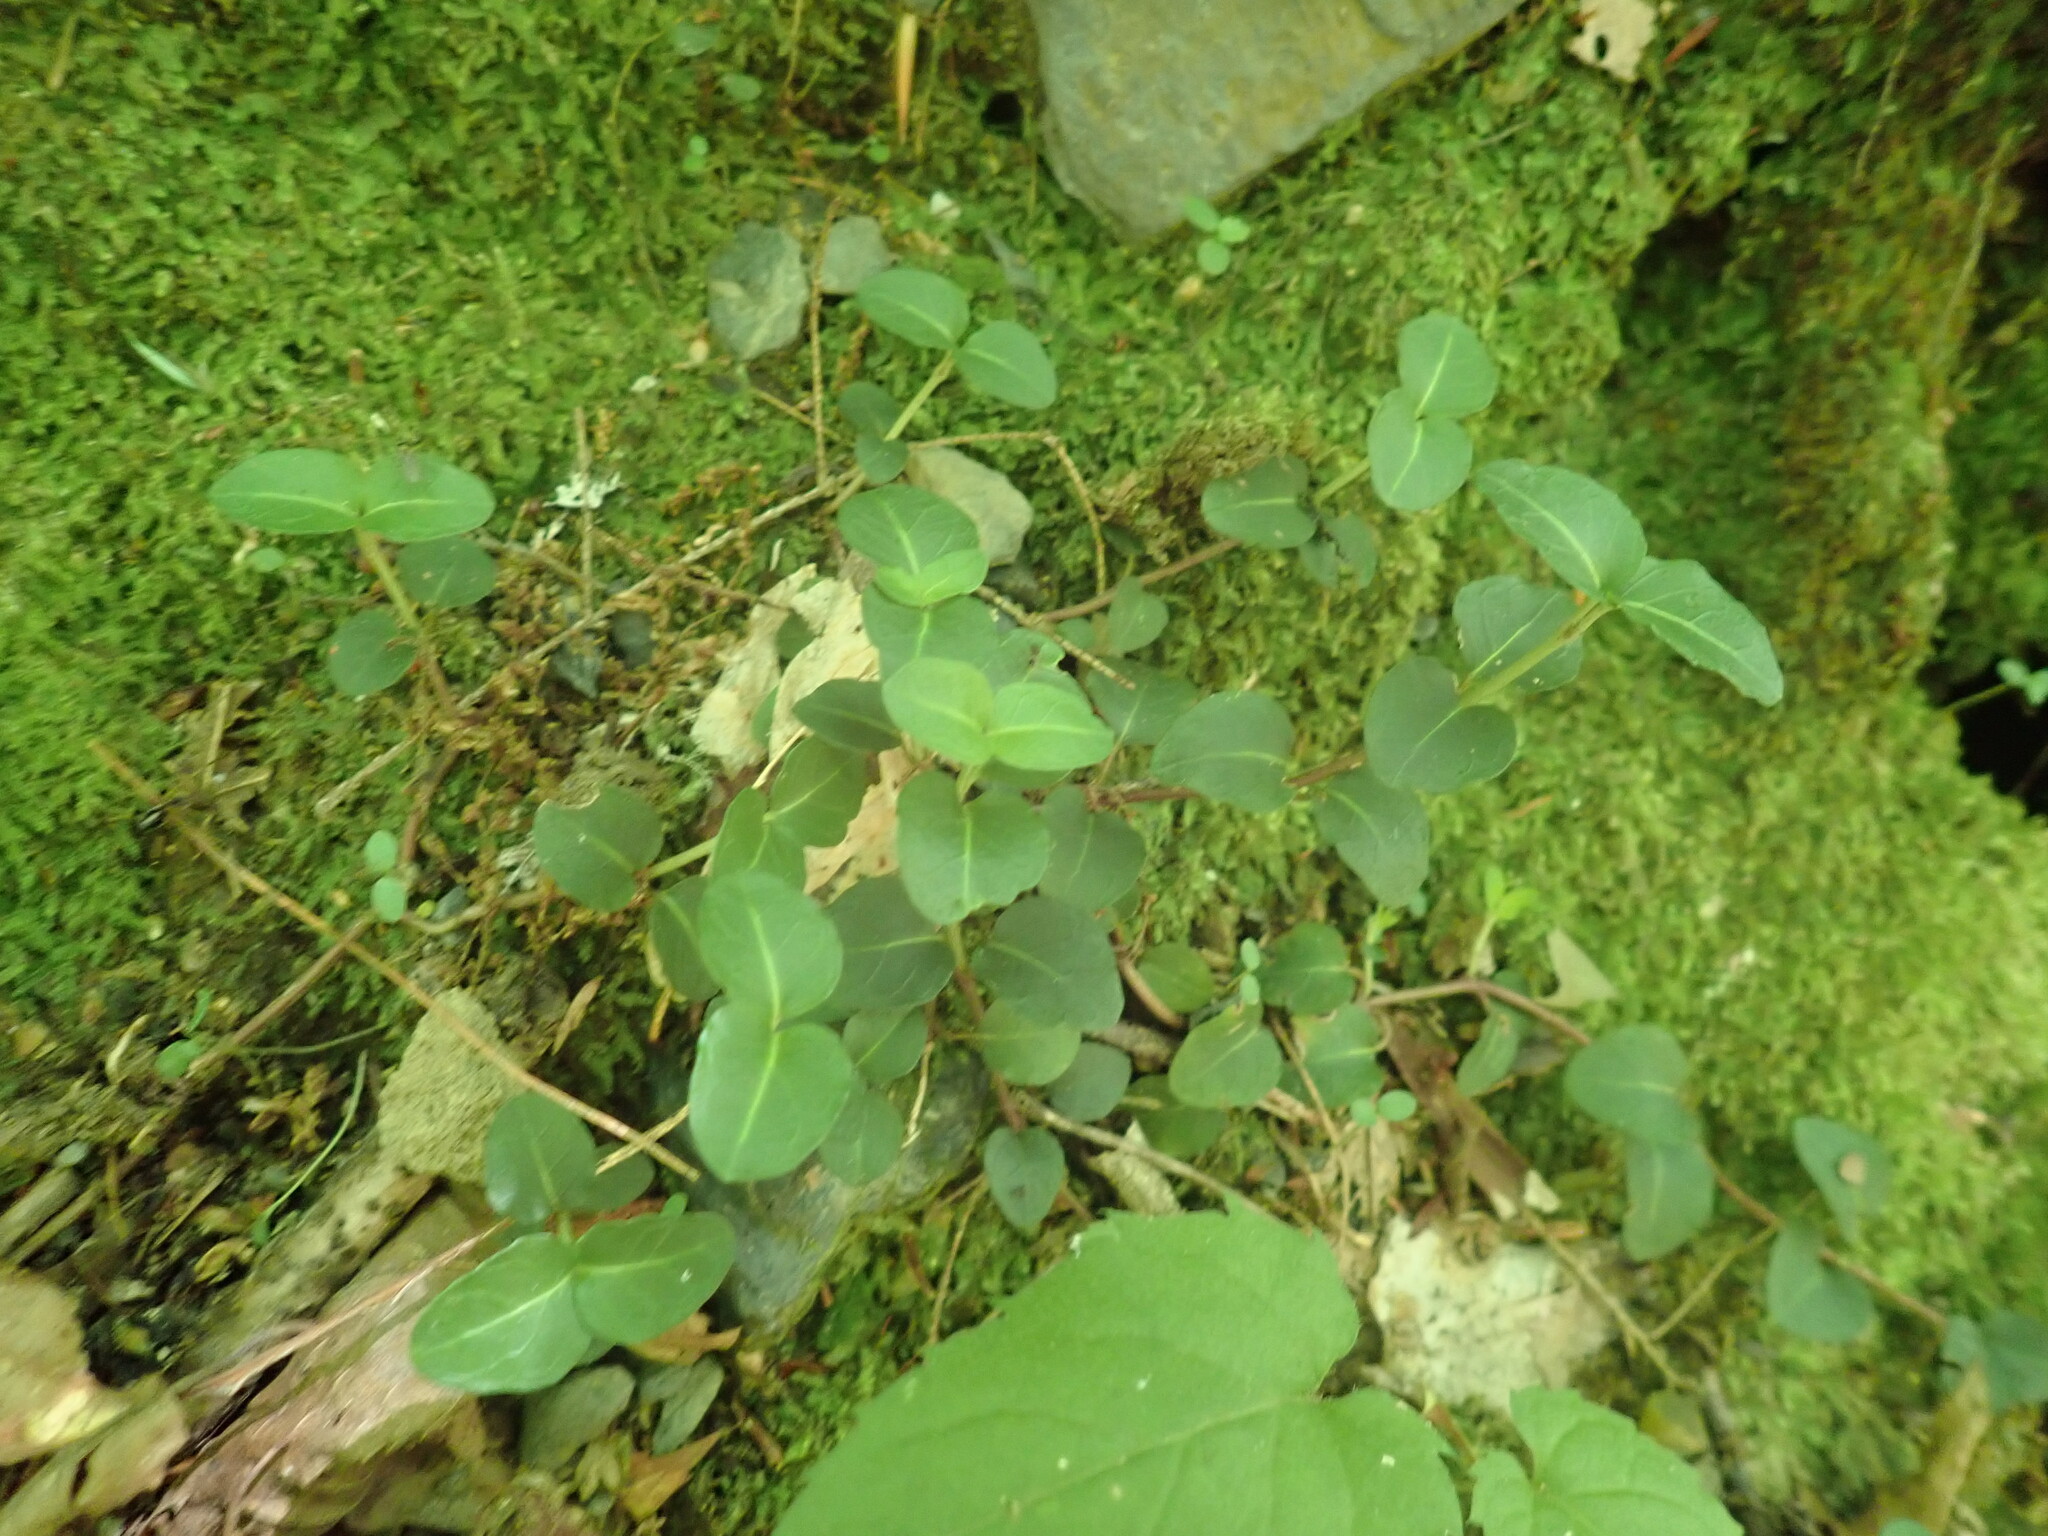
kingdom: Plantae
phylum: Tracheophyta
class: Magnoliopsida
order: Gentianales
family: Rubiaceae
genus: Mitchella
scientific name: Mitchella repens
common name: Partridge-berry
